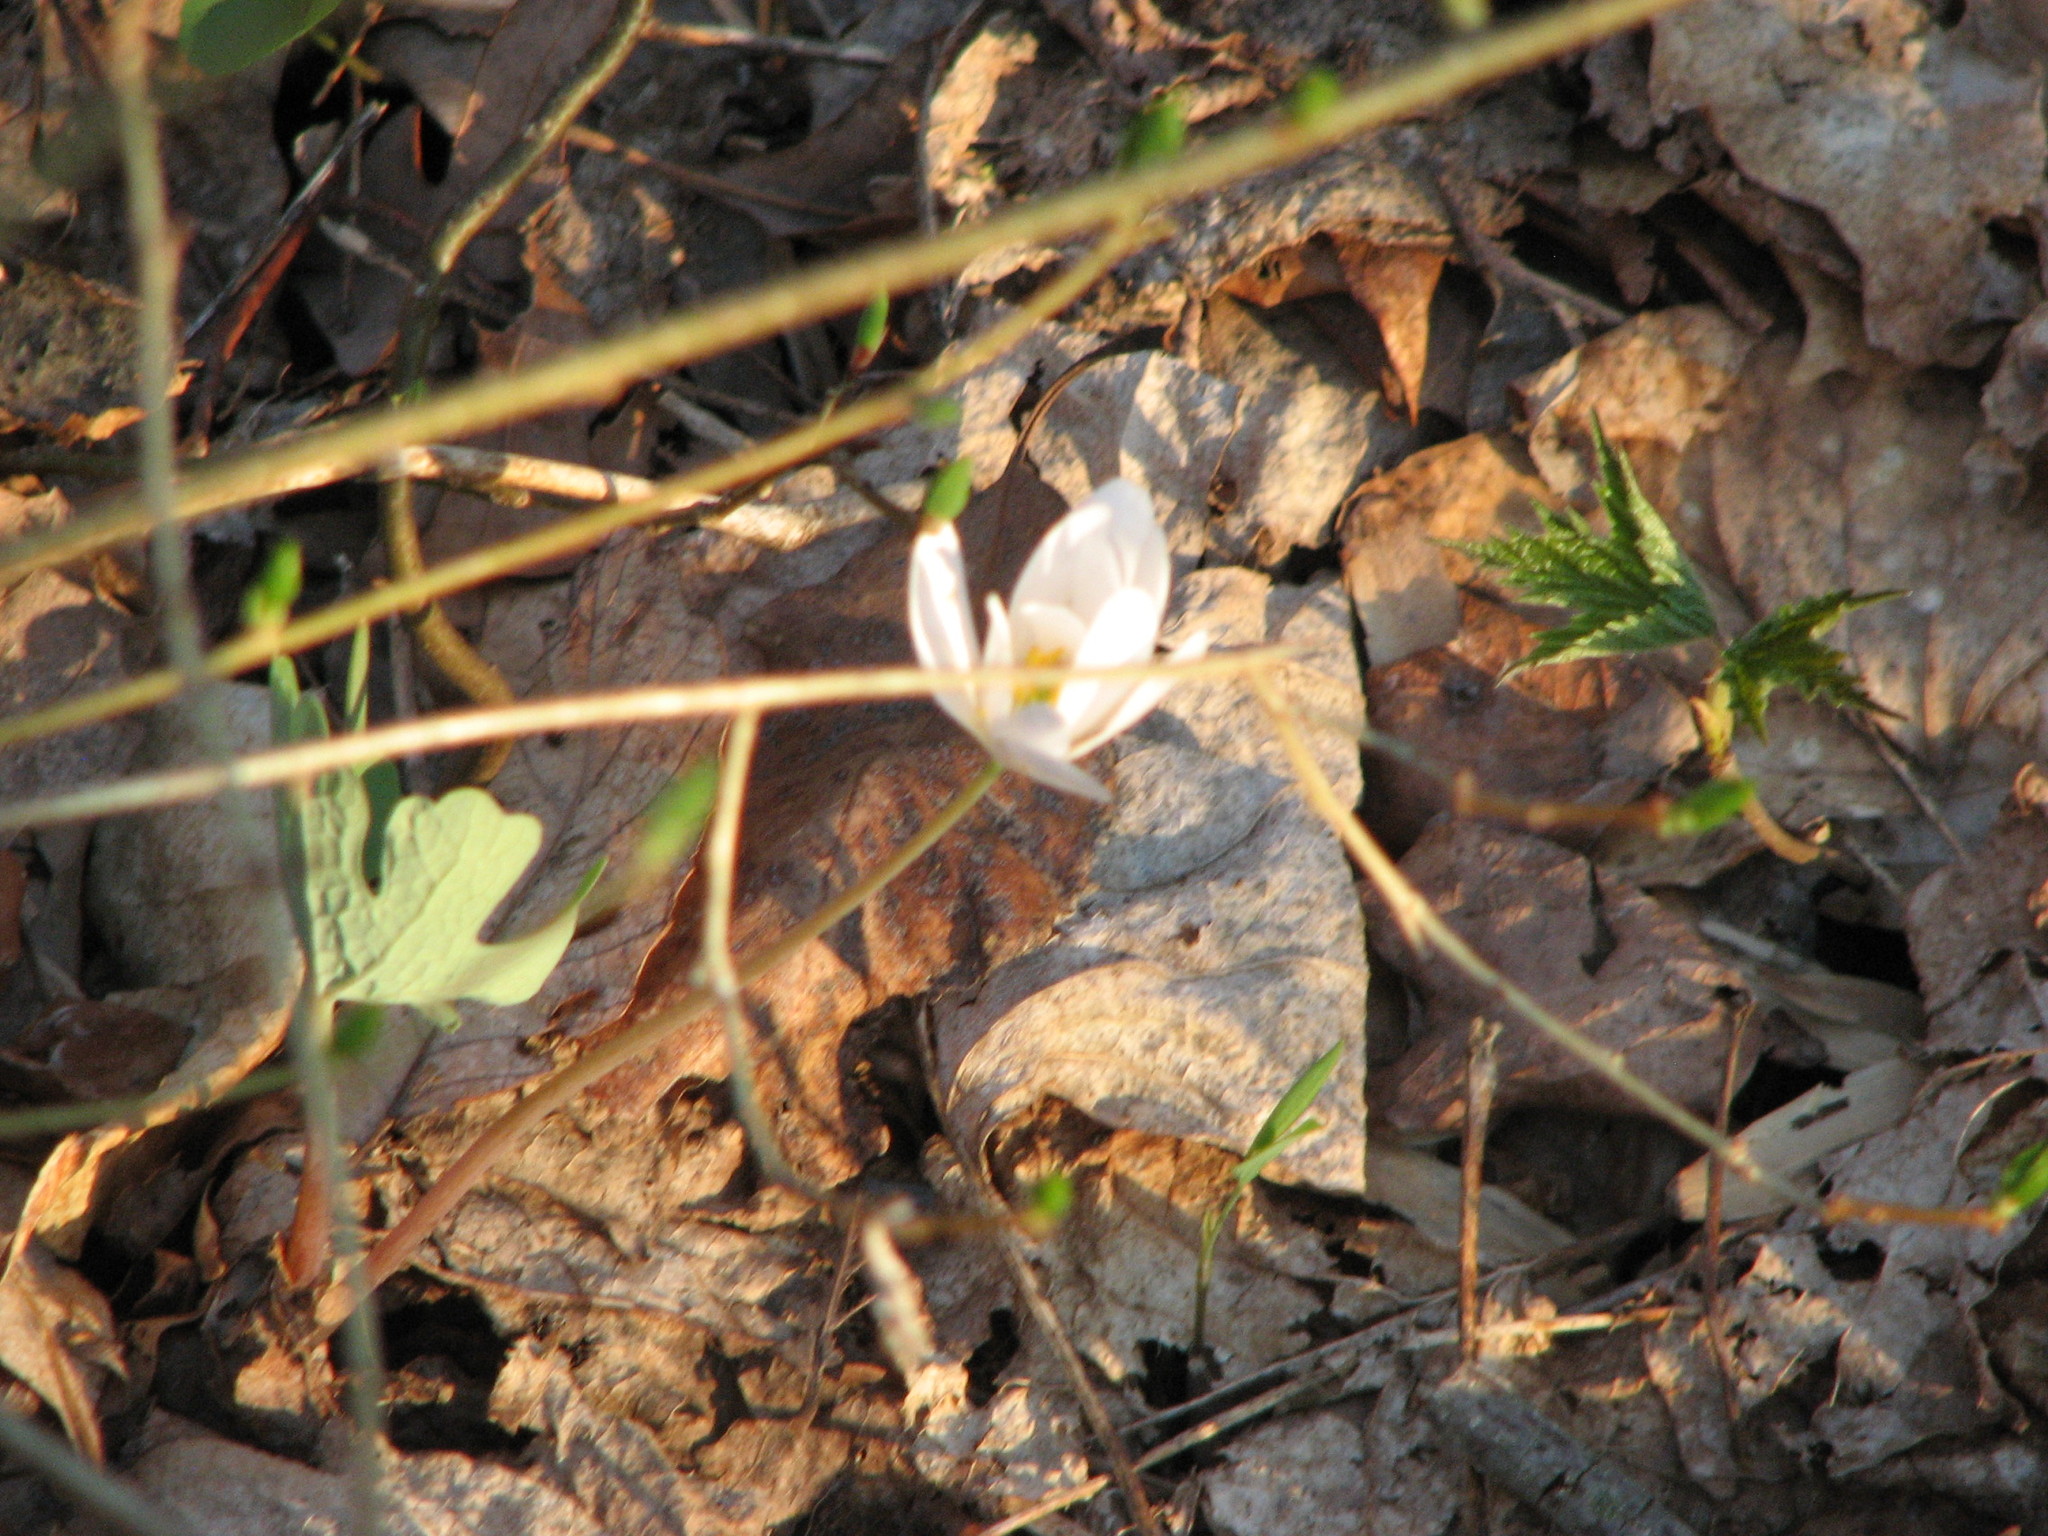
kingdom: Plantae
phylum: Tracheophyta
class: Magnoliopsida
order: Ranunculales
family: Papaveraceae
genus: Sanguinaria
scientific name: Sanguinaria canadensis
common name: Bloodroot
